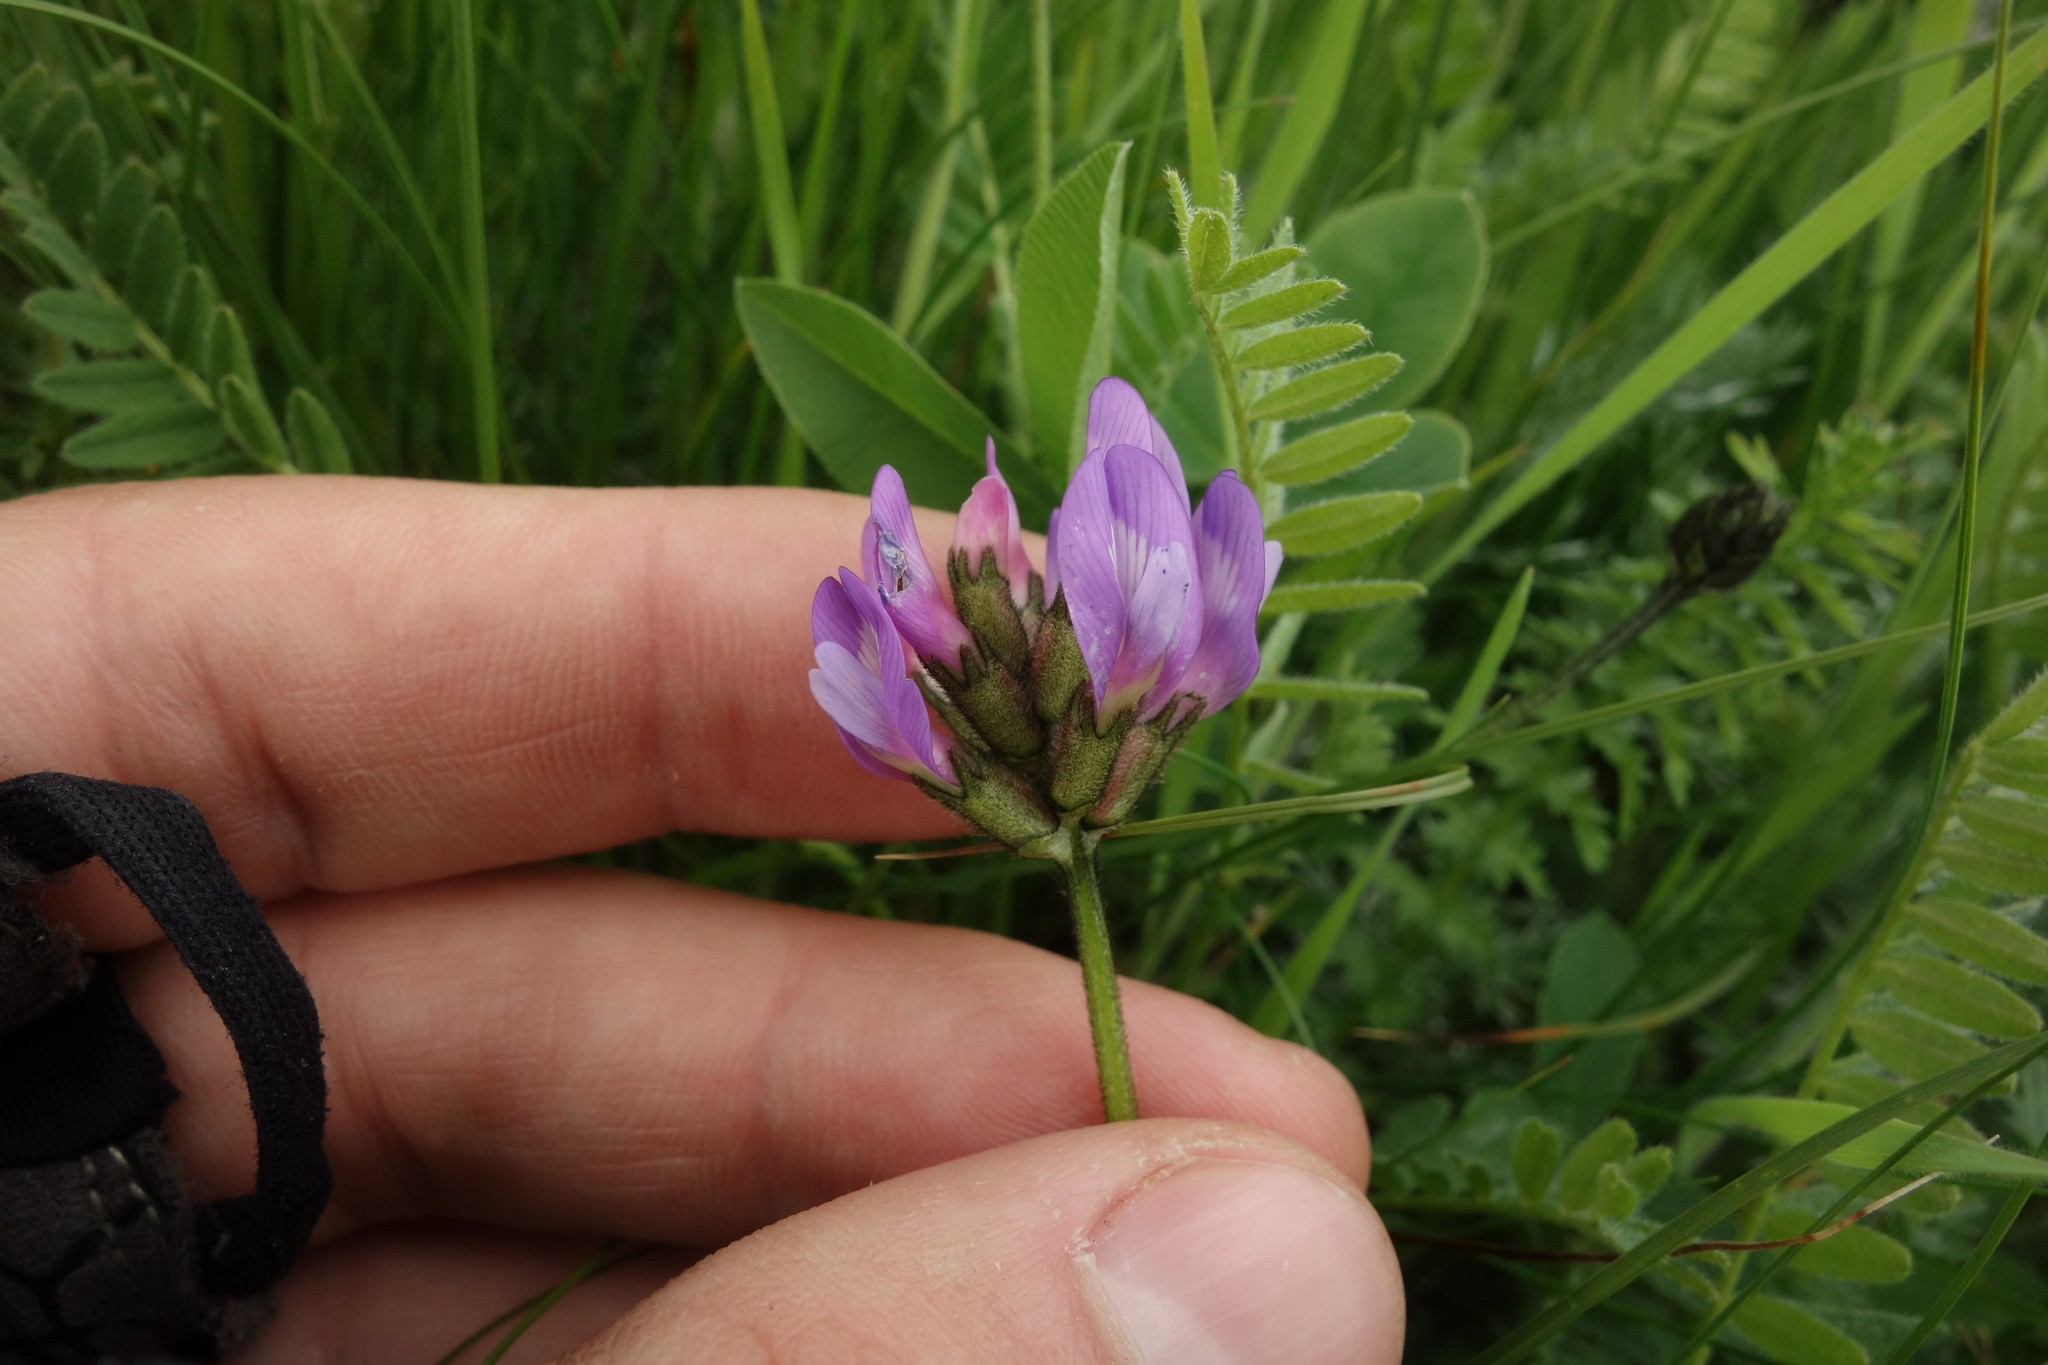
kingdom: Plantae
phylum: Tracheophyta
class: Magnoliopsida
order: Fabales
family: Fabaceae
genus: Astragalus
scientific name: Astragalus danicus
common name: Purple milk-vetch
